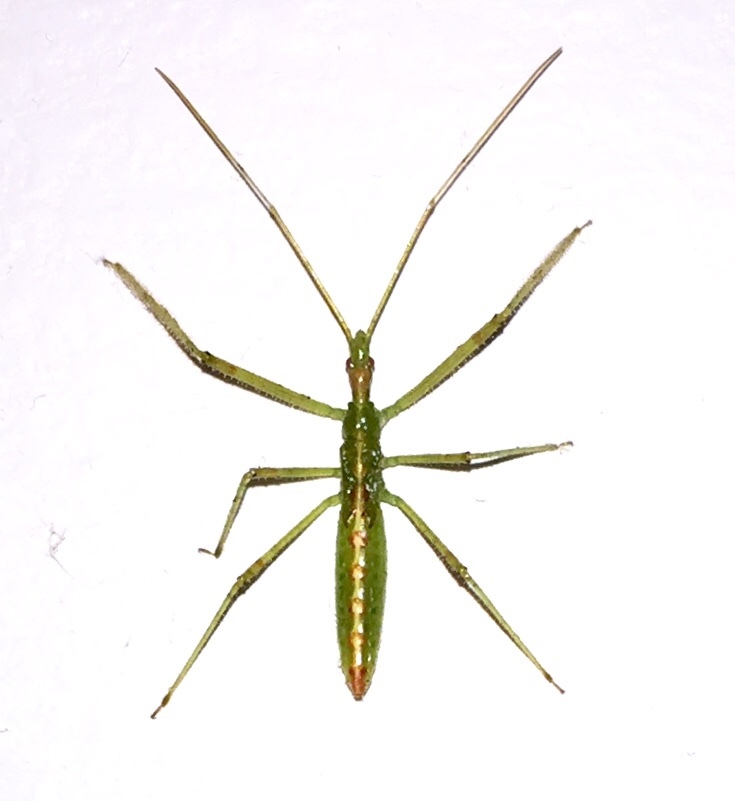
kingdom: Animalia
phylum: Arthropoda
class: Insecta
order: Hemiptera
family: Reduviidae
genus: Zelus
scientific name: Zelus luridus
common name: Pale green assassin bug
